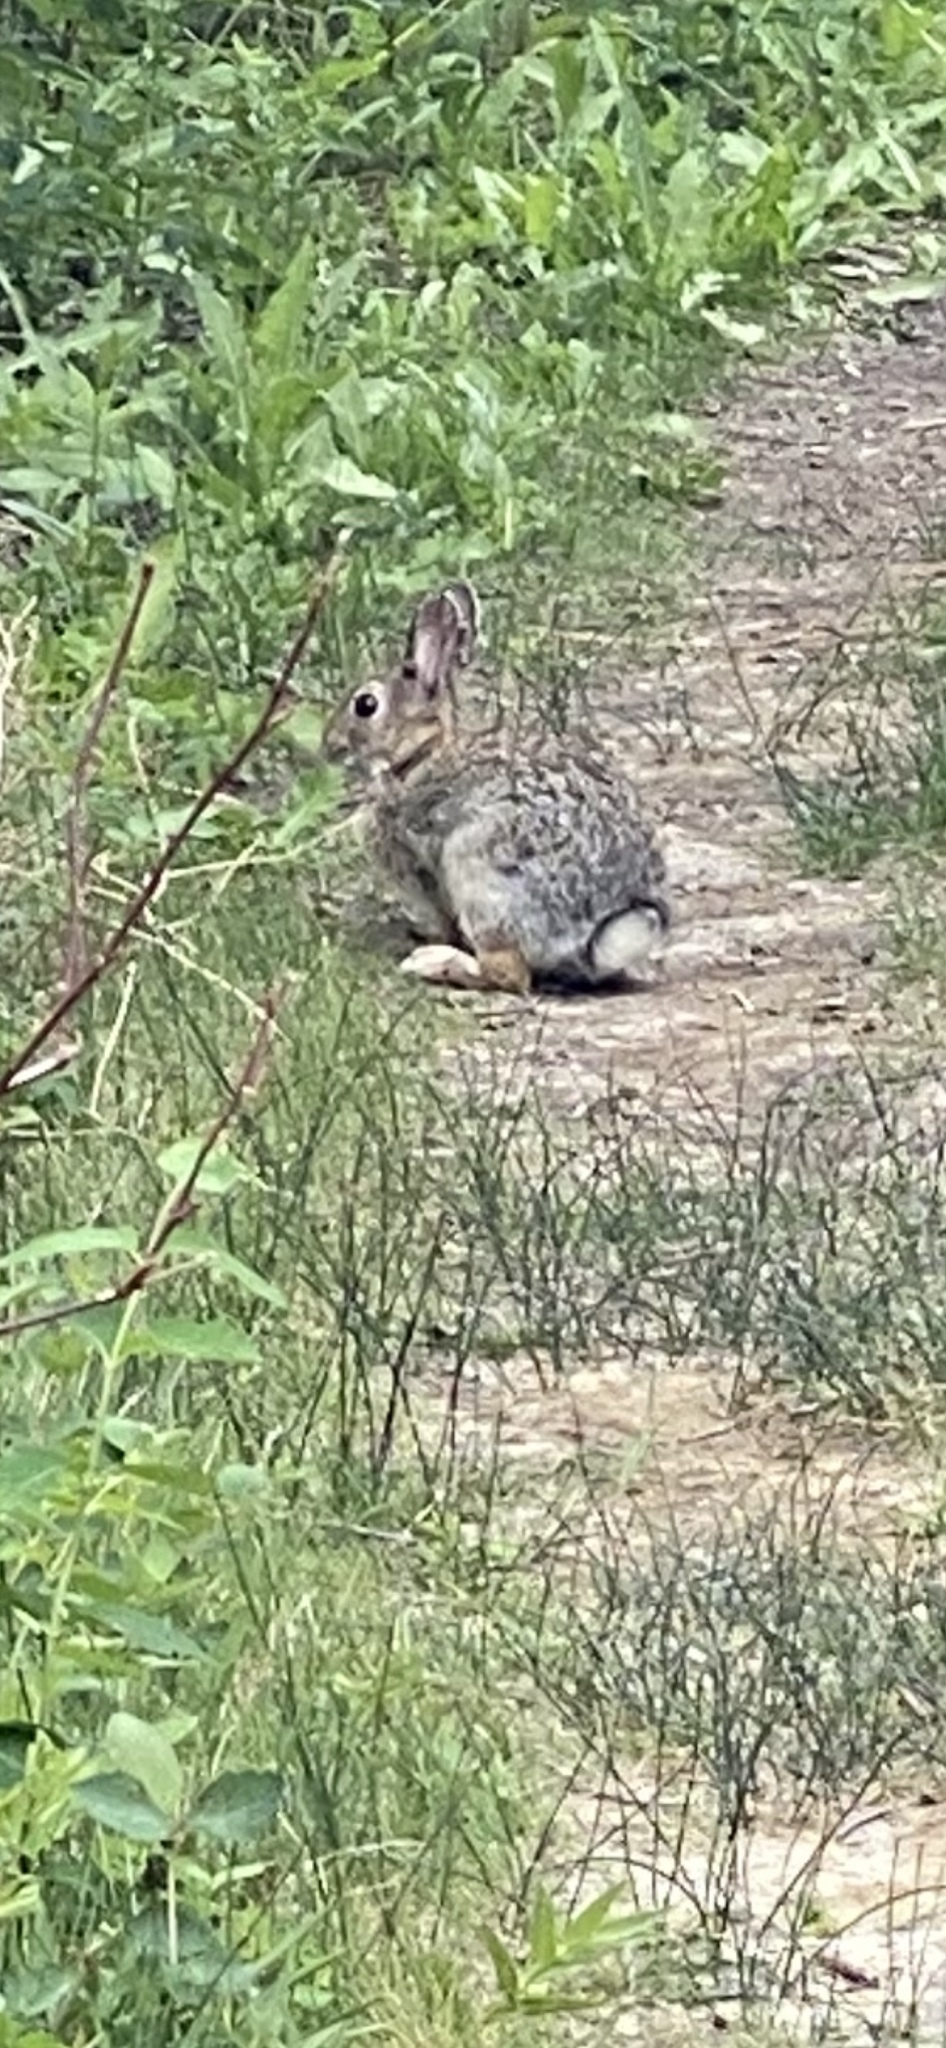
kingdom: Animalia
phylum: Chordata
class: Mammalia
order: Lagomorpha
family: Leporidae
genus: Sylvilagus
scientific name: Sylvilagus nuttallii
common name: Mountain cottontail
